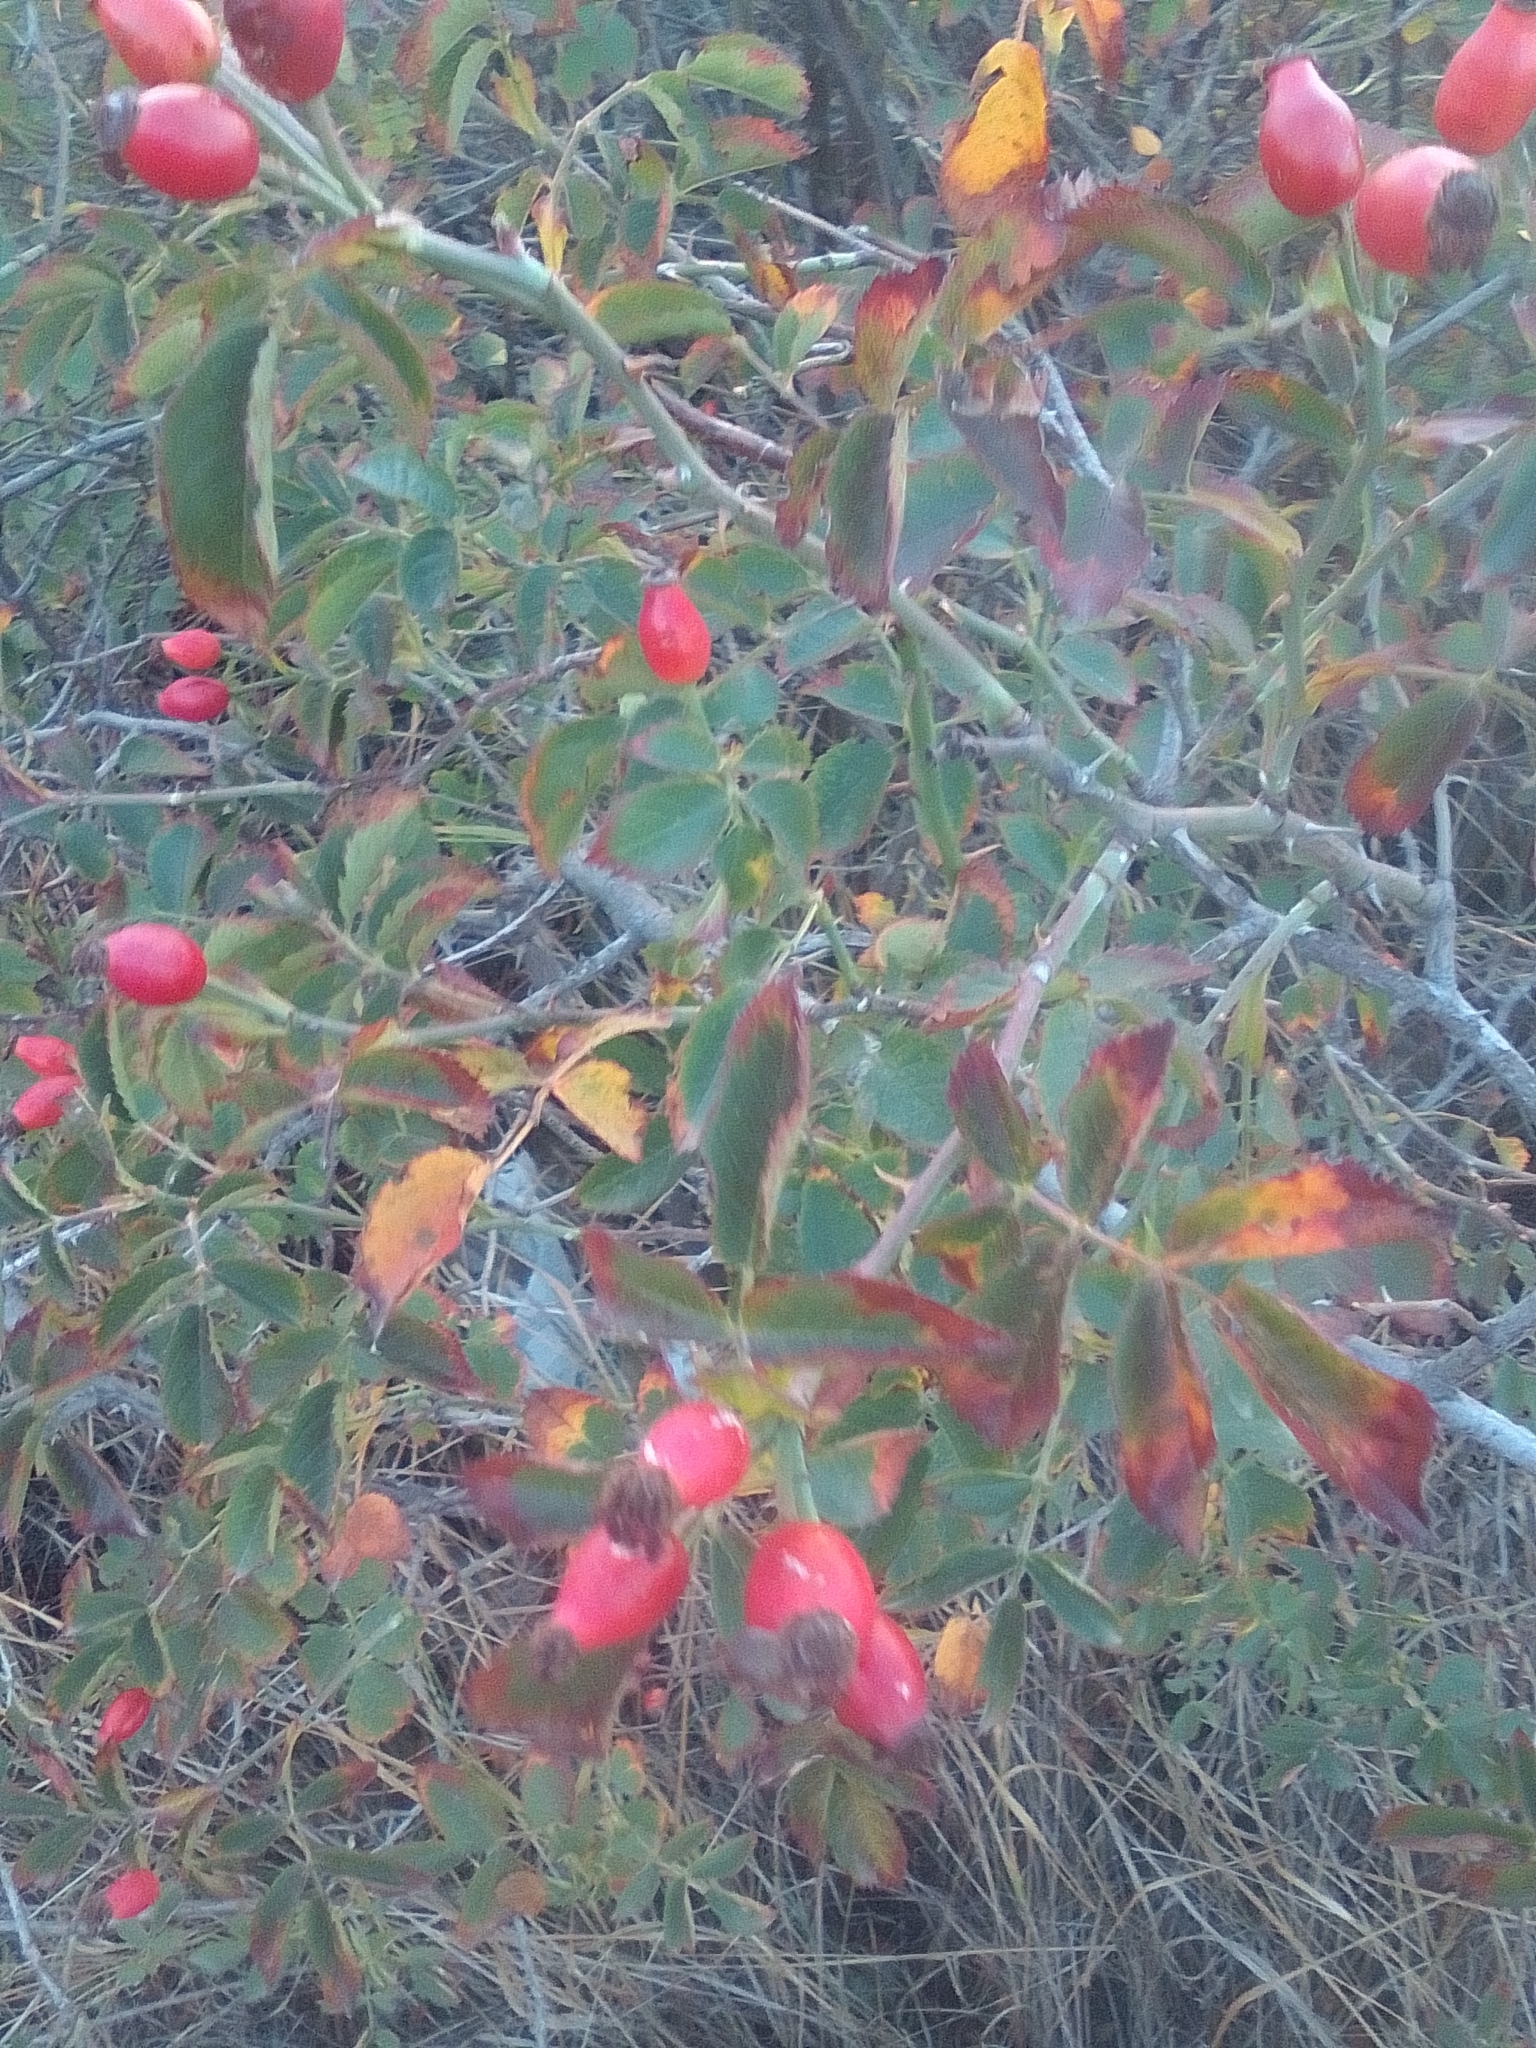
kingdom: Plantae
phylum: Tracheophyta
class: Magnoliopsida
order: Rosales
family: Rosaceae
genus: Rosa
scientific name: Rosa
